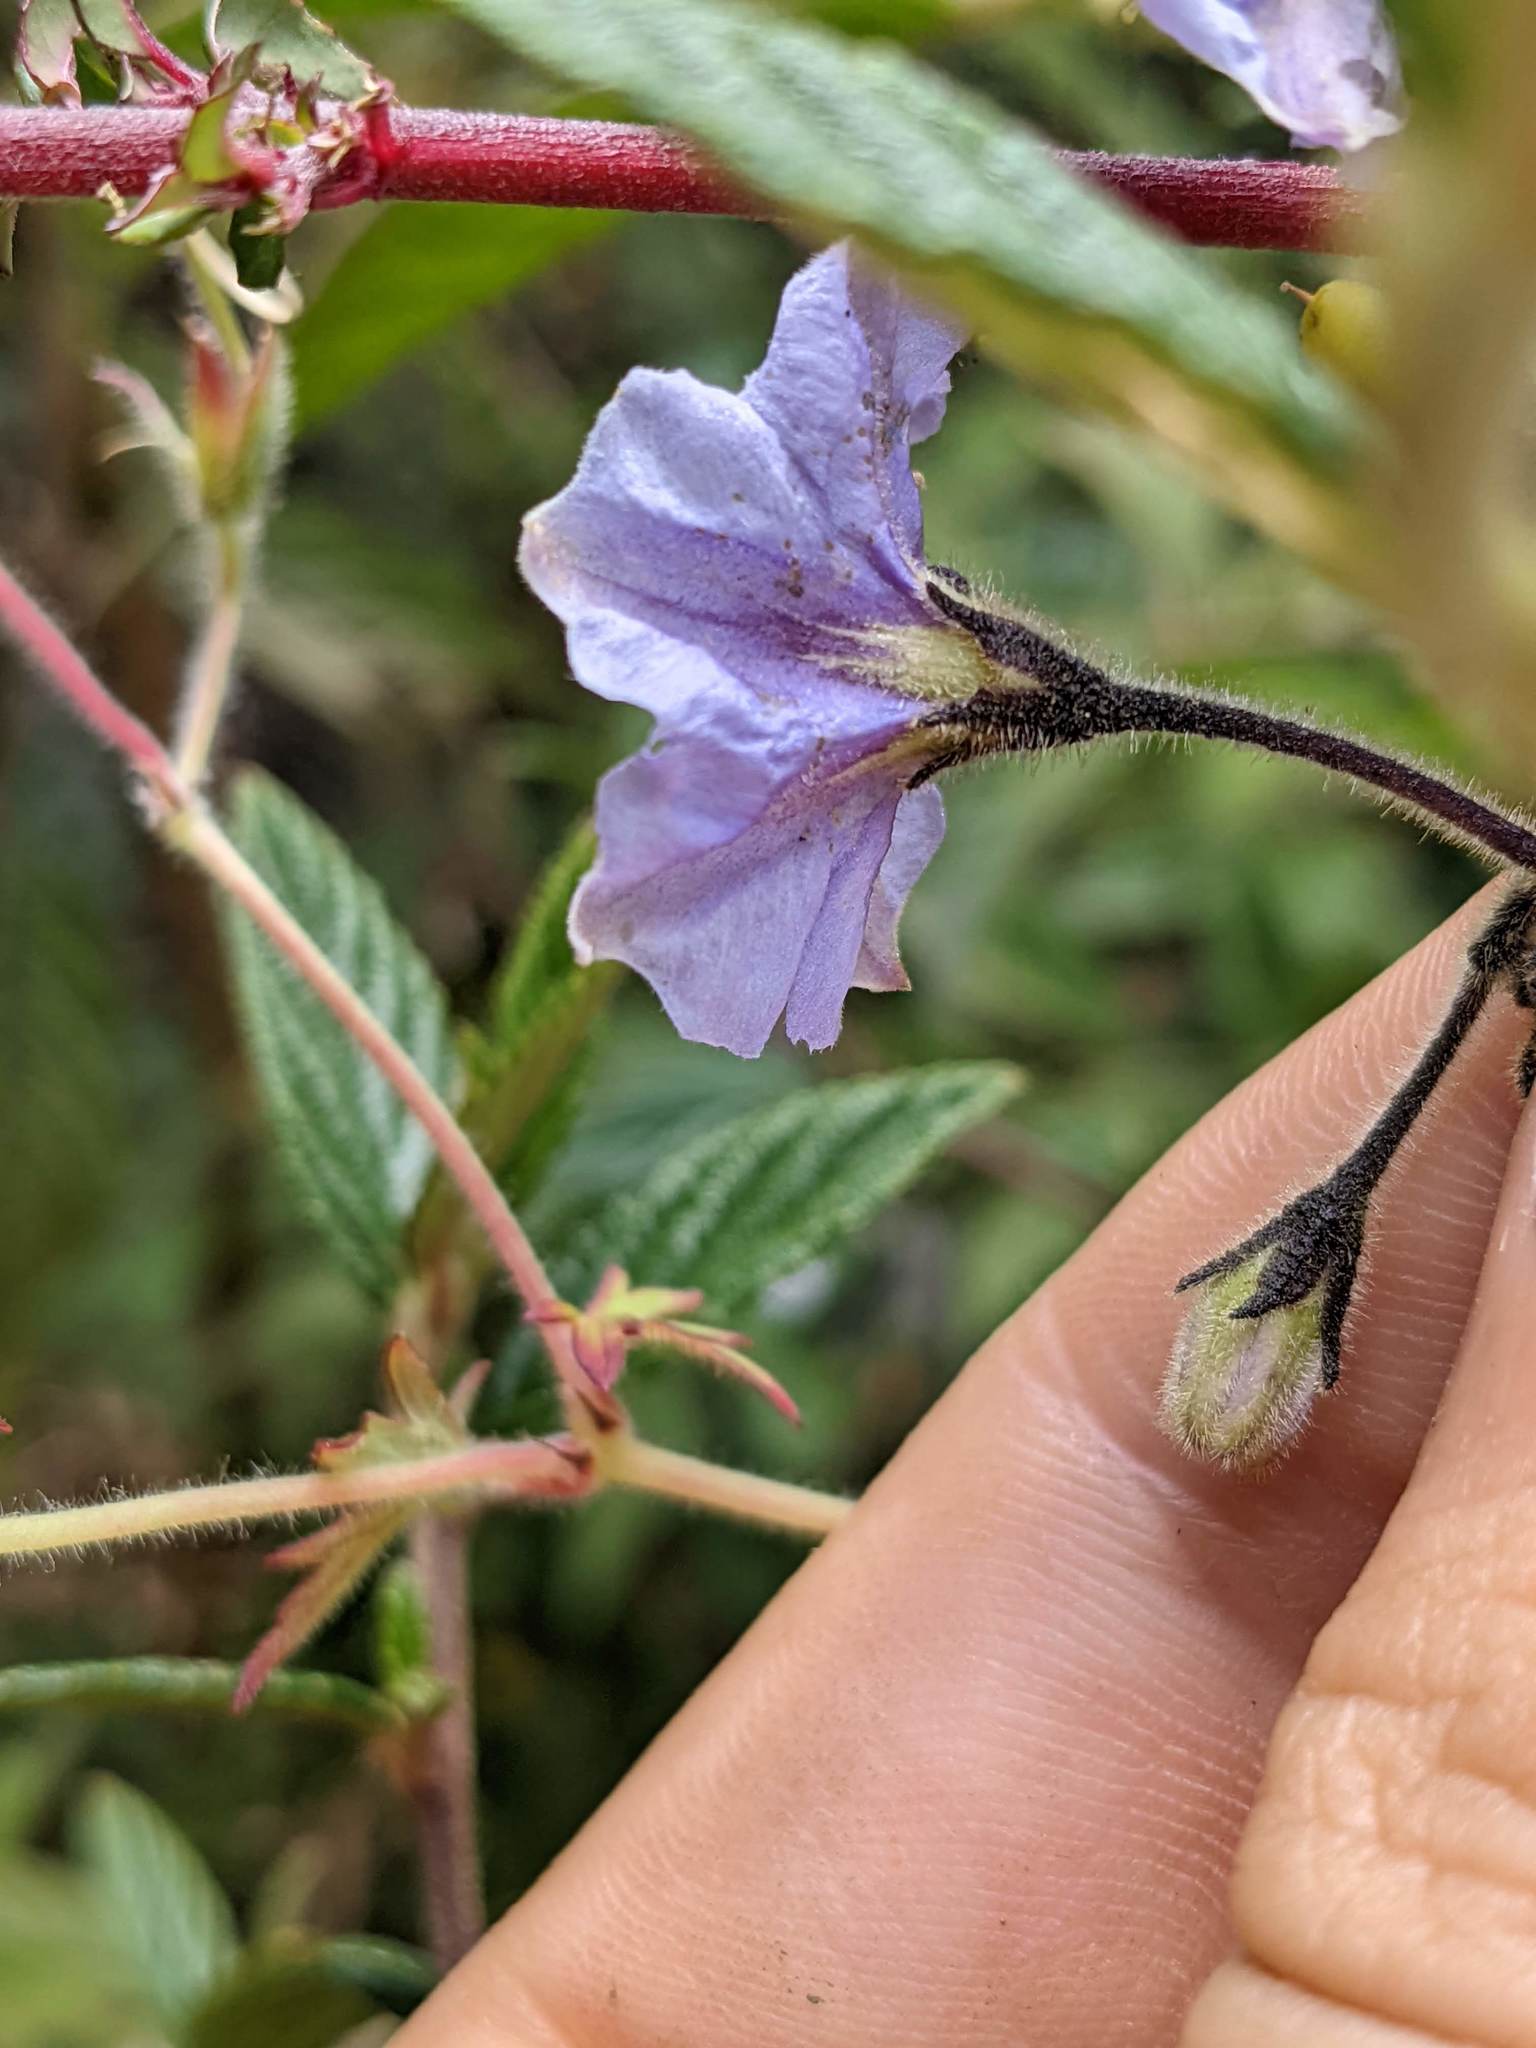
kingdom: Plantae
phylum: Tracheophyta
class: Magnoliopsida
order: Solanales
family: Solanaceae
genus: Solanum
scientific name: Solanum taeniotrichum
